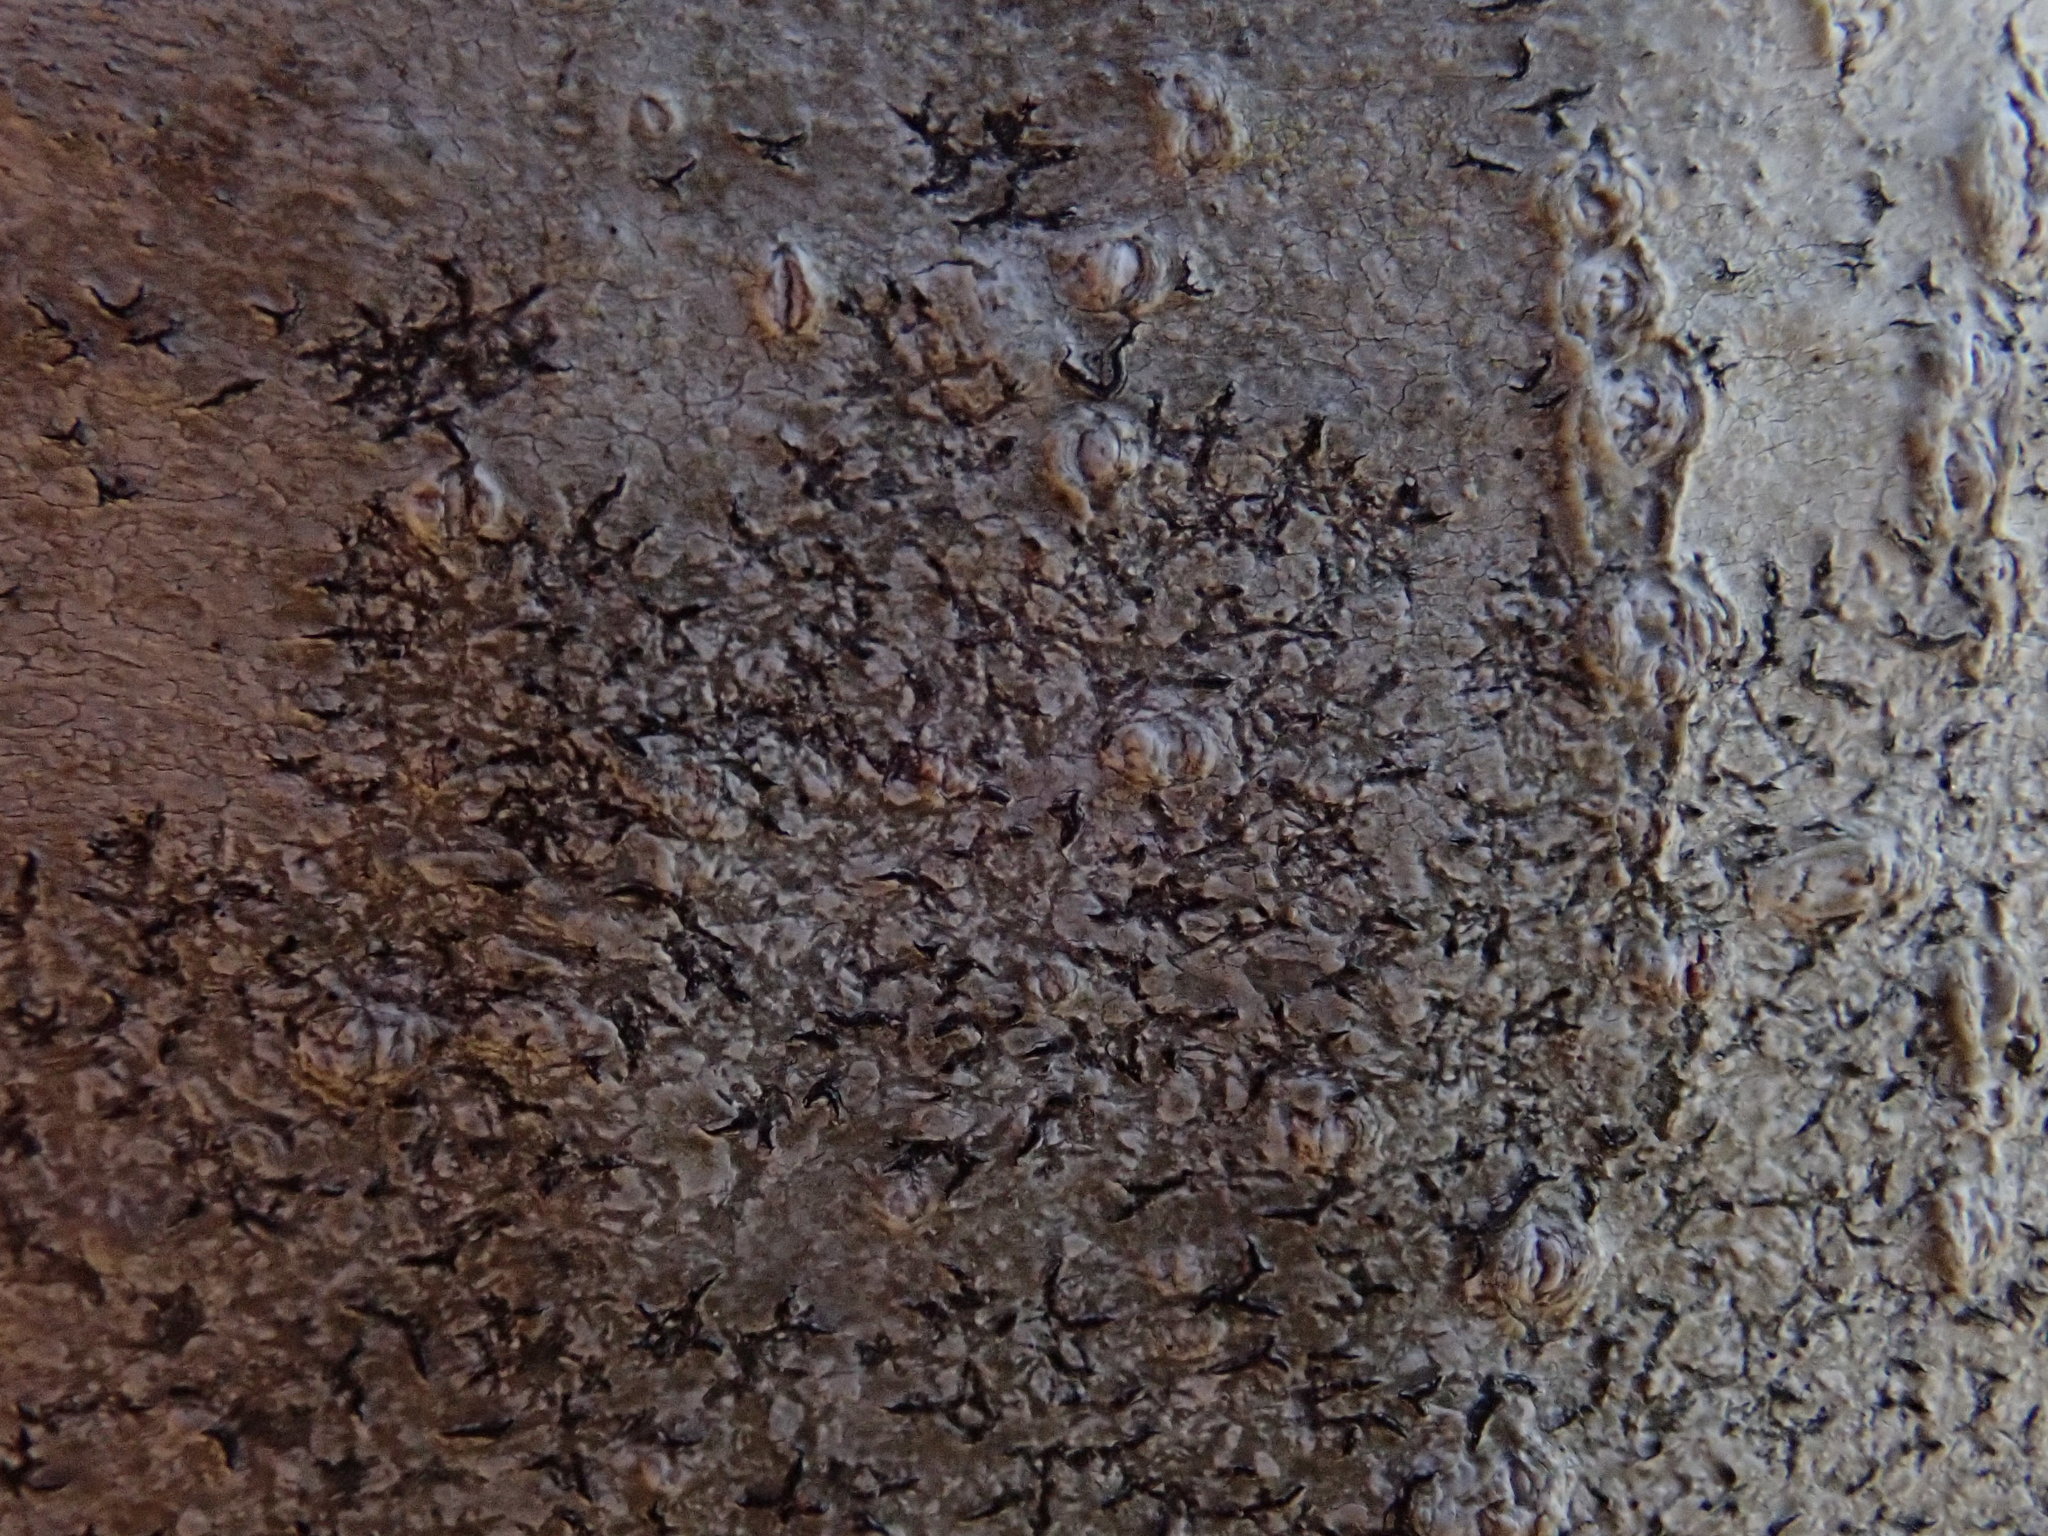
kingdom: Fungi
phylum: Ascomycota
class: Lecanoromycetes
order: Ostropales
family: Graphidaceae
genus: Graphis
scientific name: Graphis scripta
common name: Script lichen
